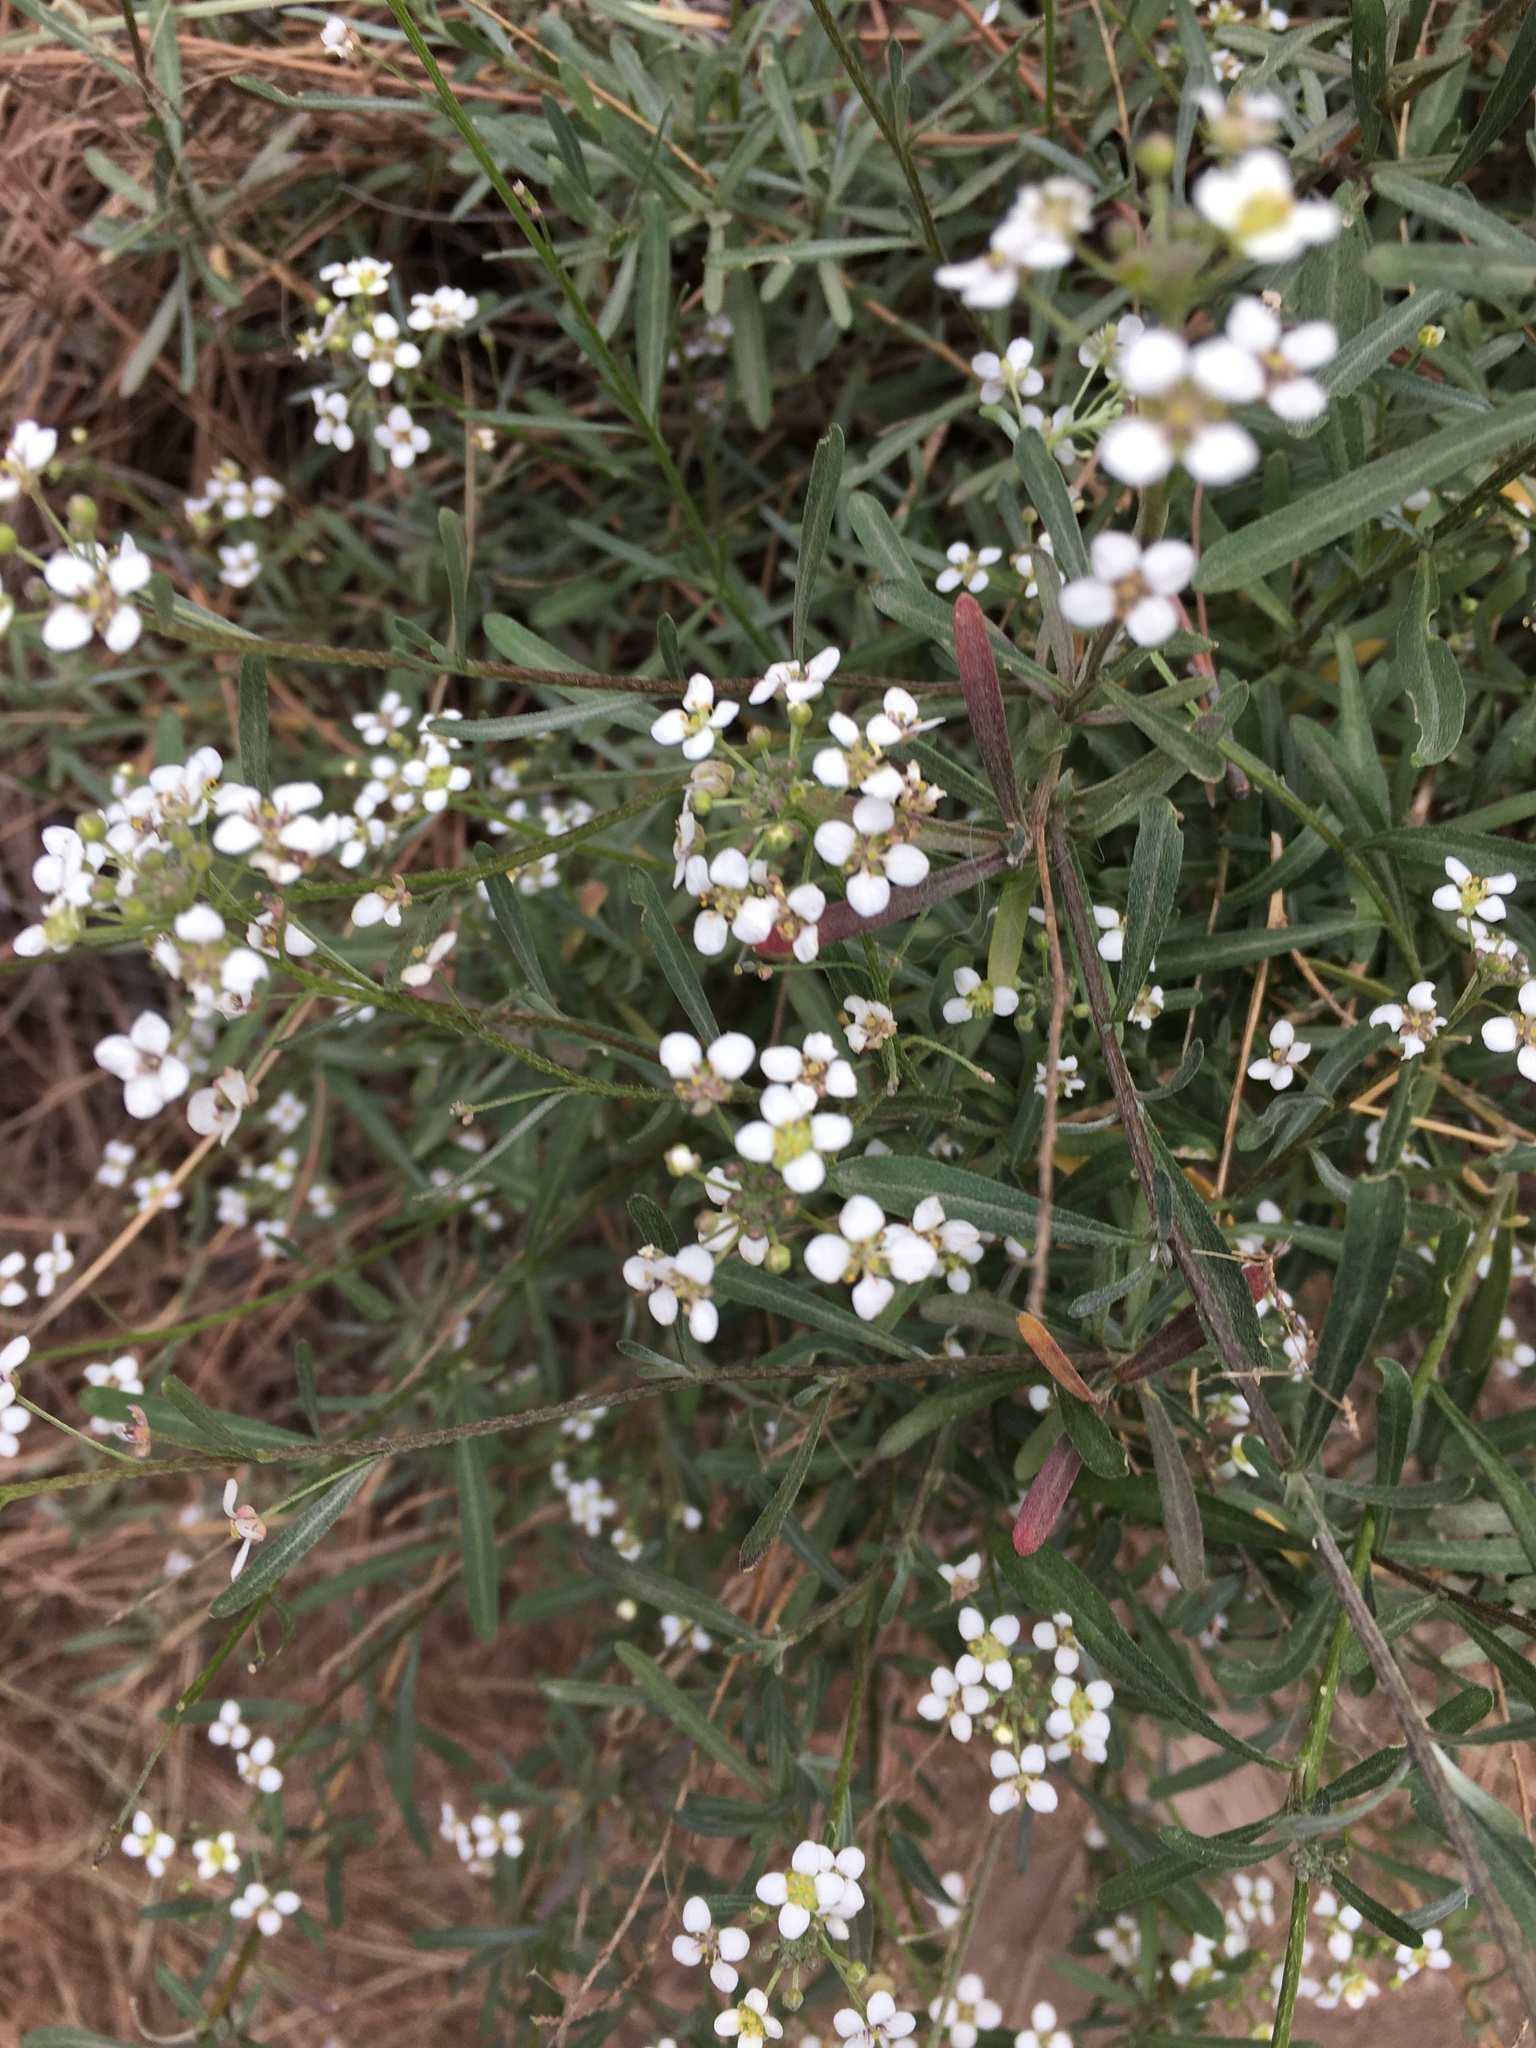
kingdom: Plantae
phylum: Tracheophyta
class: Magnoliopsida
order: Brassicales
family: Brassicaceae
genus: Lobularia
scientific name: Lobularia canariensis
